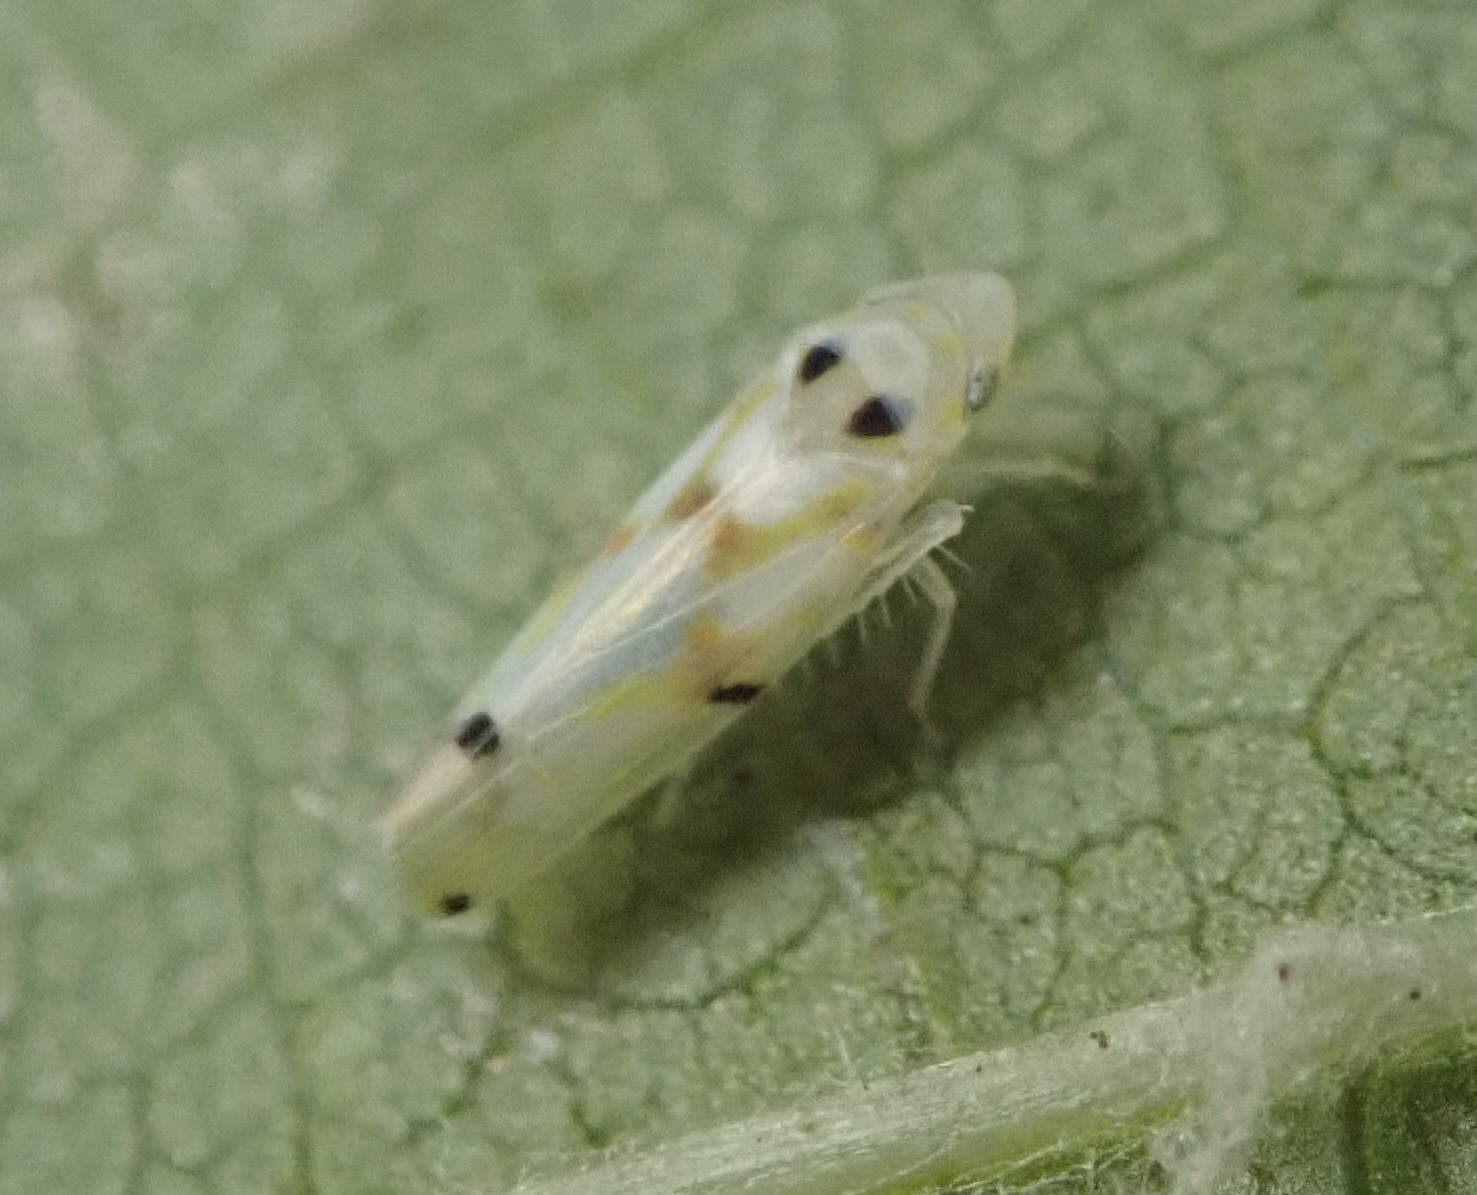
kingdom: Animalia
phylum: Arthropoda
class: Insecta
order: Hemiptera
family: Cicadellidae
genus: Erythroneura
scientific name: Erythroneura elegantula
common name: Western grape leafhopper
